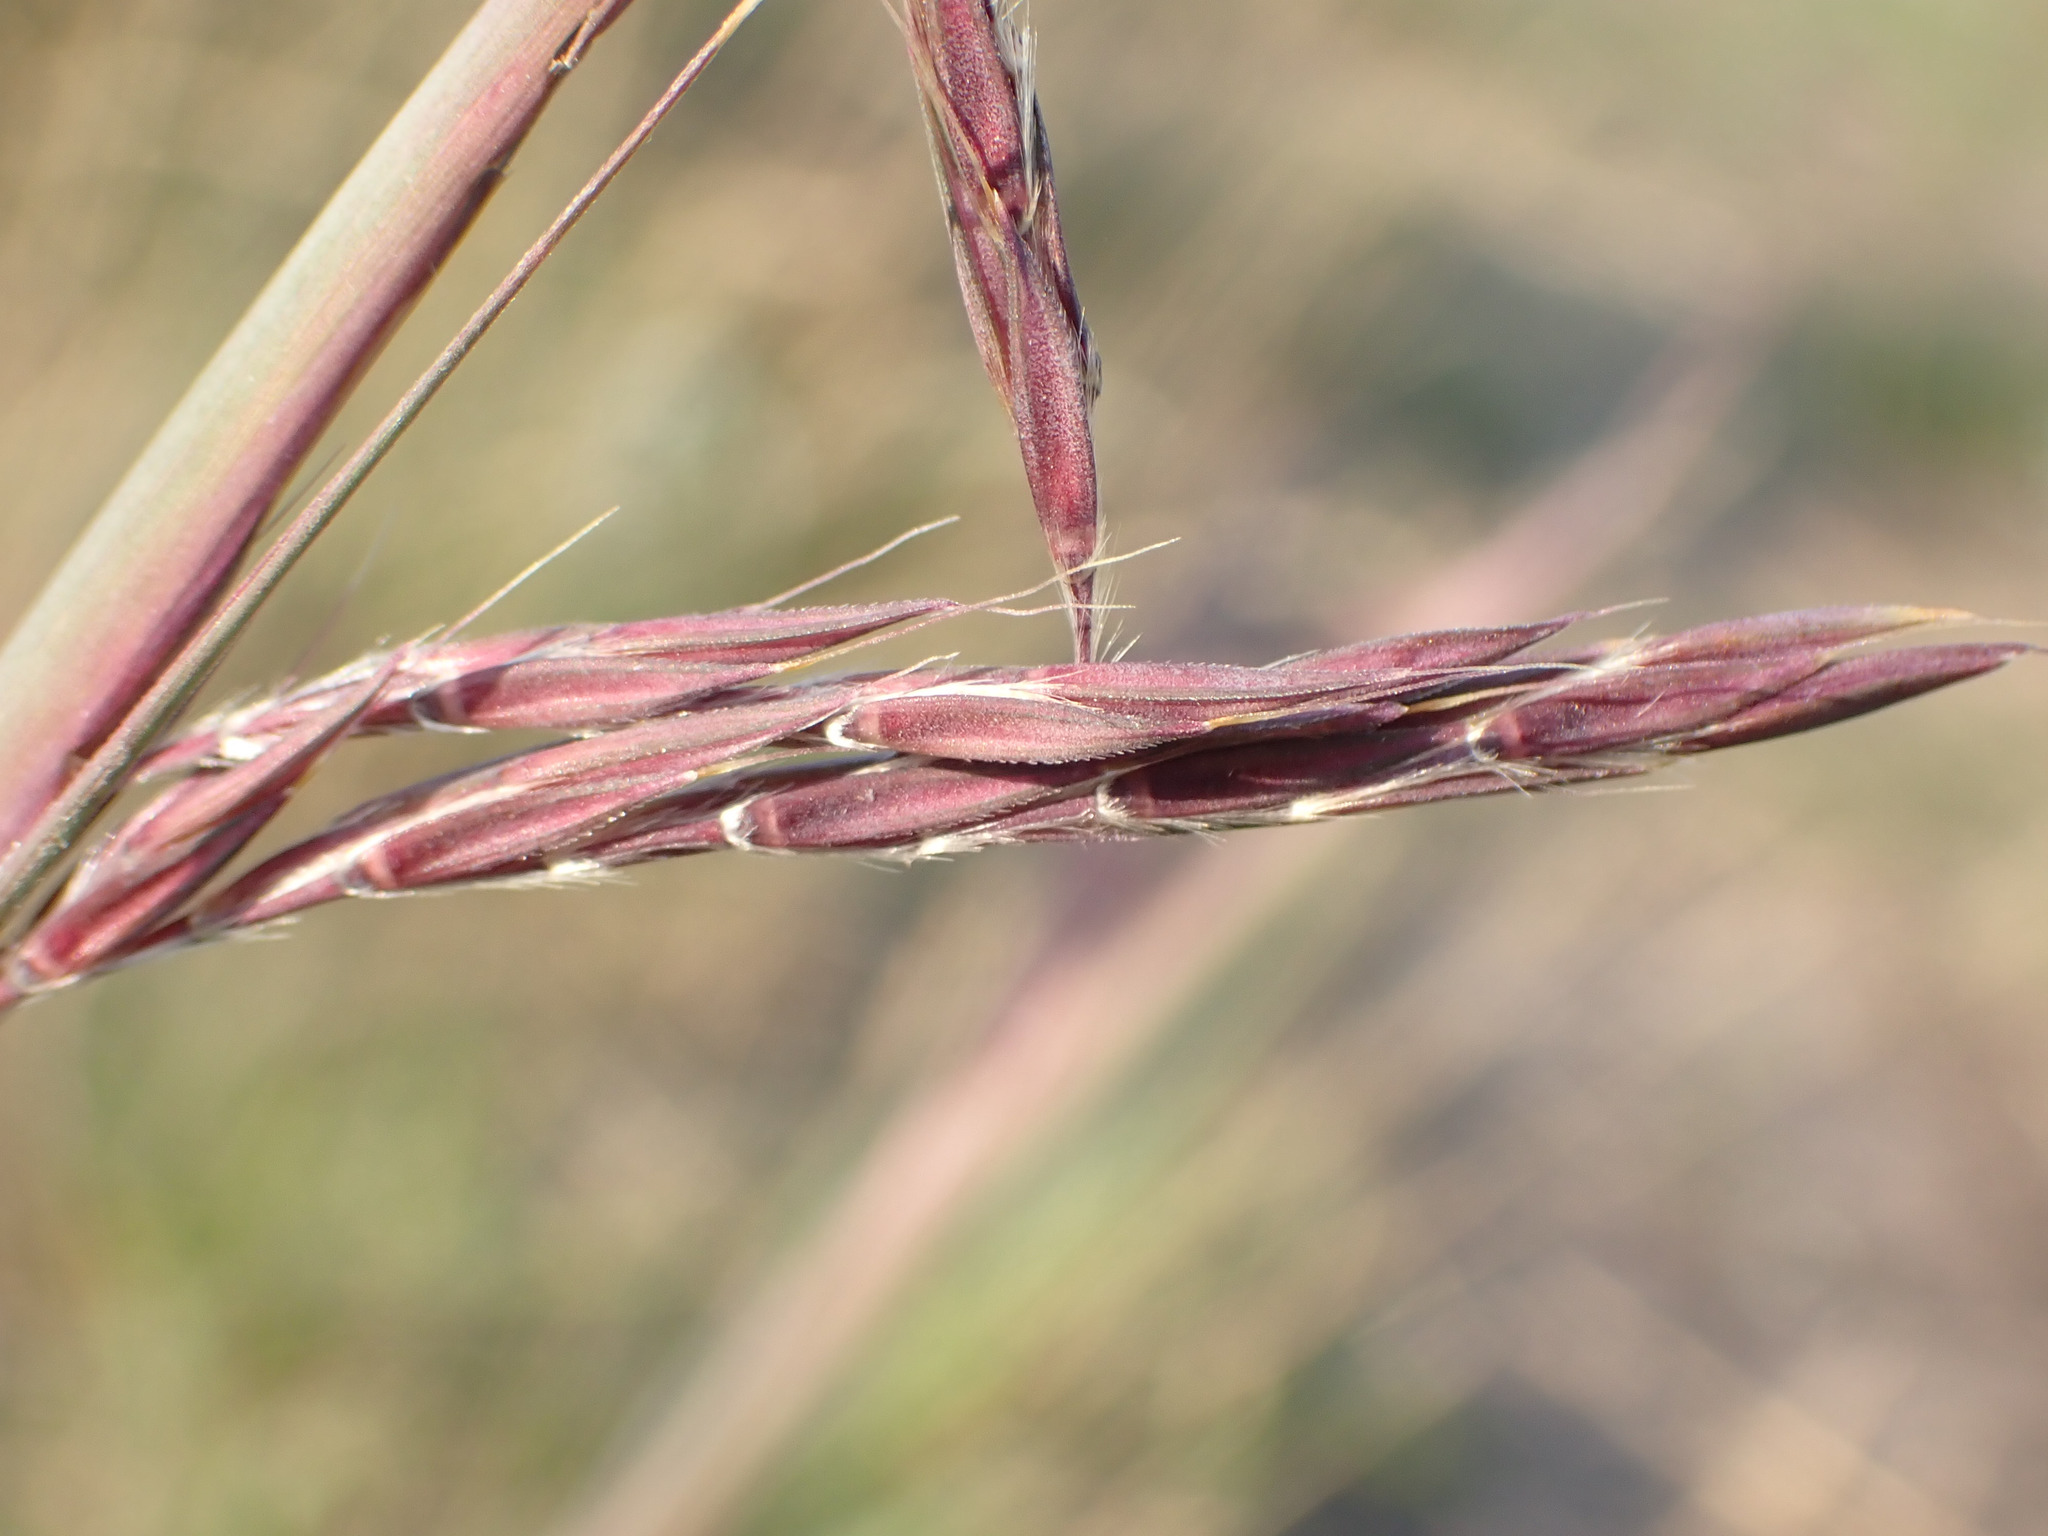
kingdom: Plantae
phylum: Tracheophyta
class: Liliopsida
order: Poales
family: Poaceae
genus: Andropogon
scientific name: Andropogon gerardi
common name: Big bluestem
